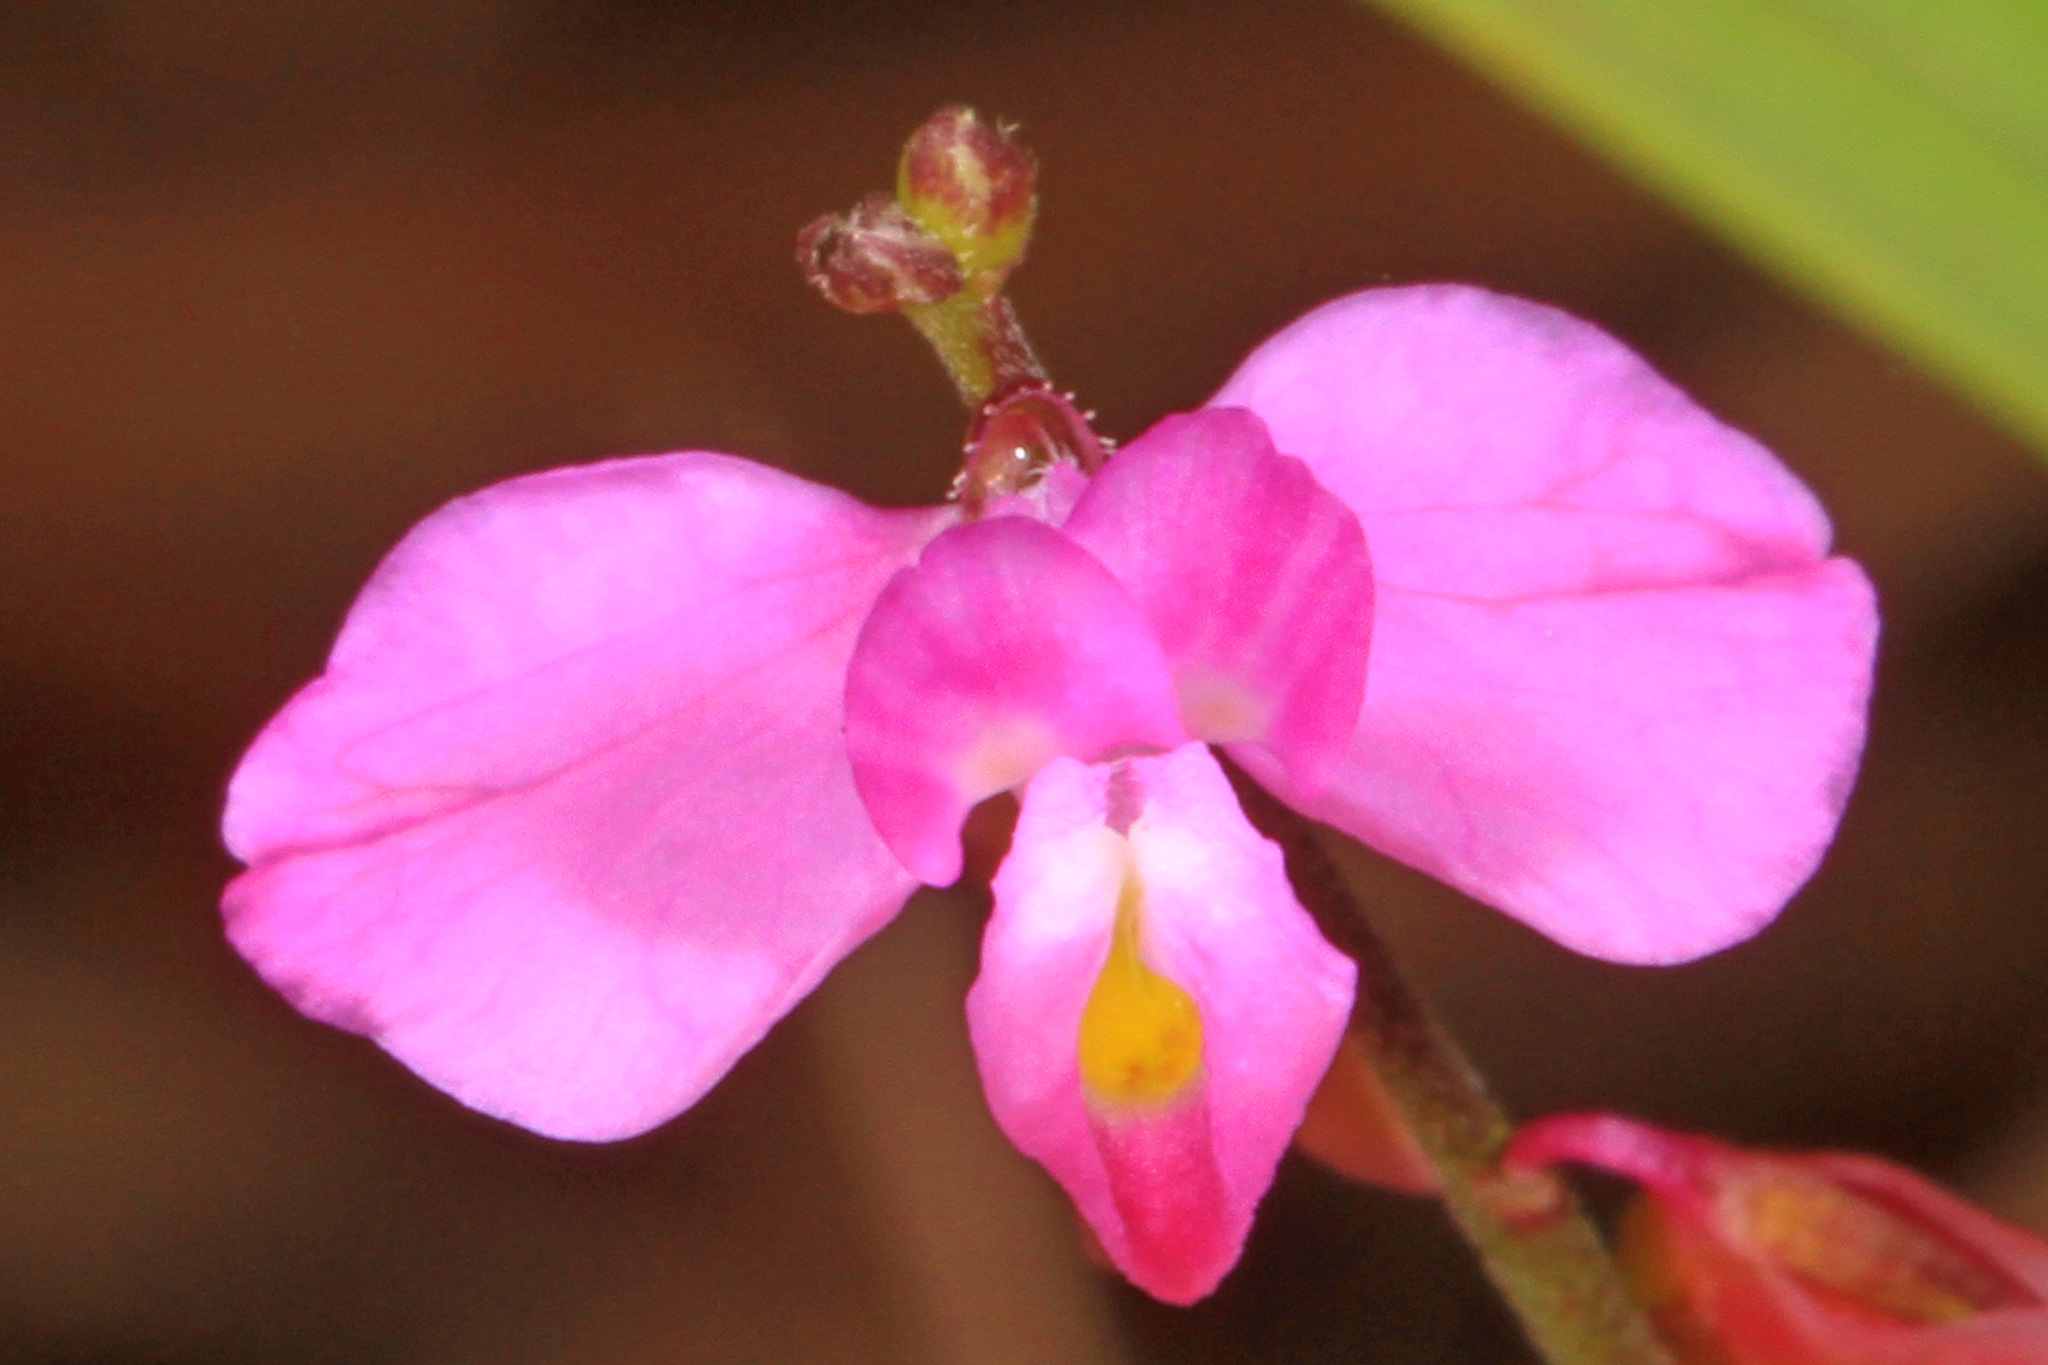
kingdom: Plantae
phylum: Tracheophyta
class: Magnoliopsida
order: Fabales
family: Polygalaceae
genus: Asemeia
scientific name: Asemeia grandiflora
